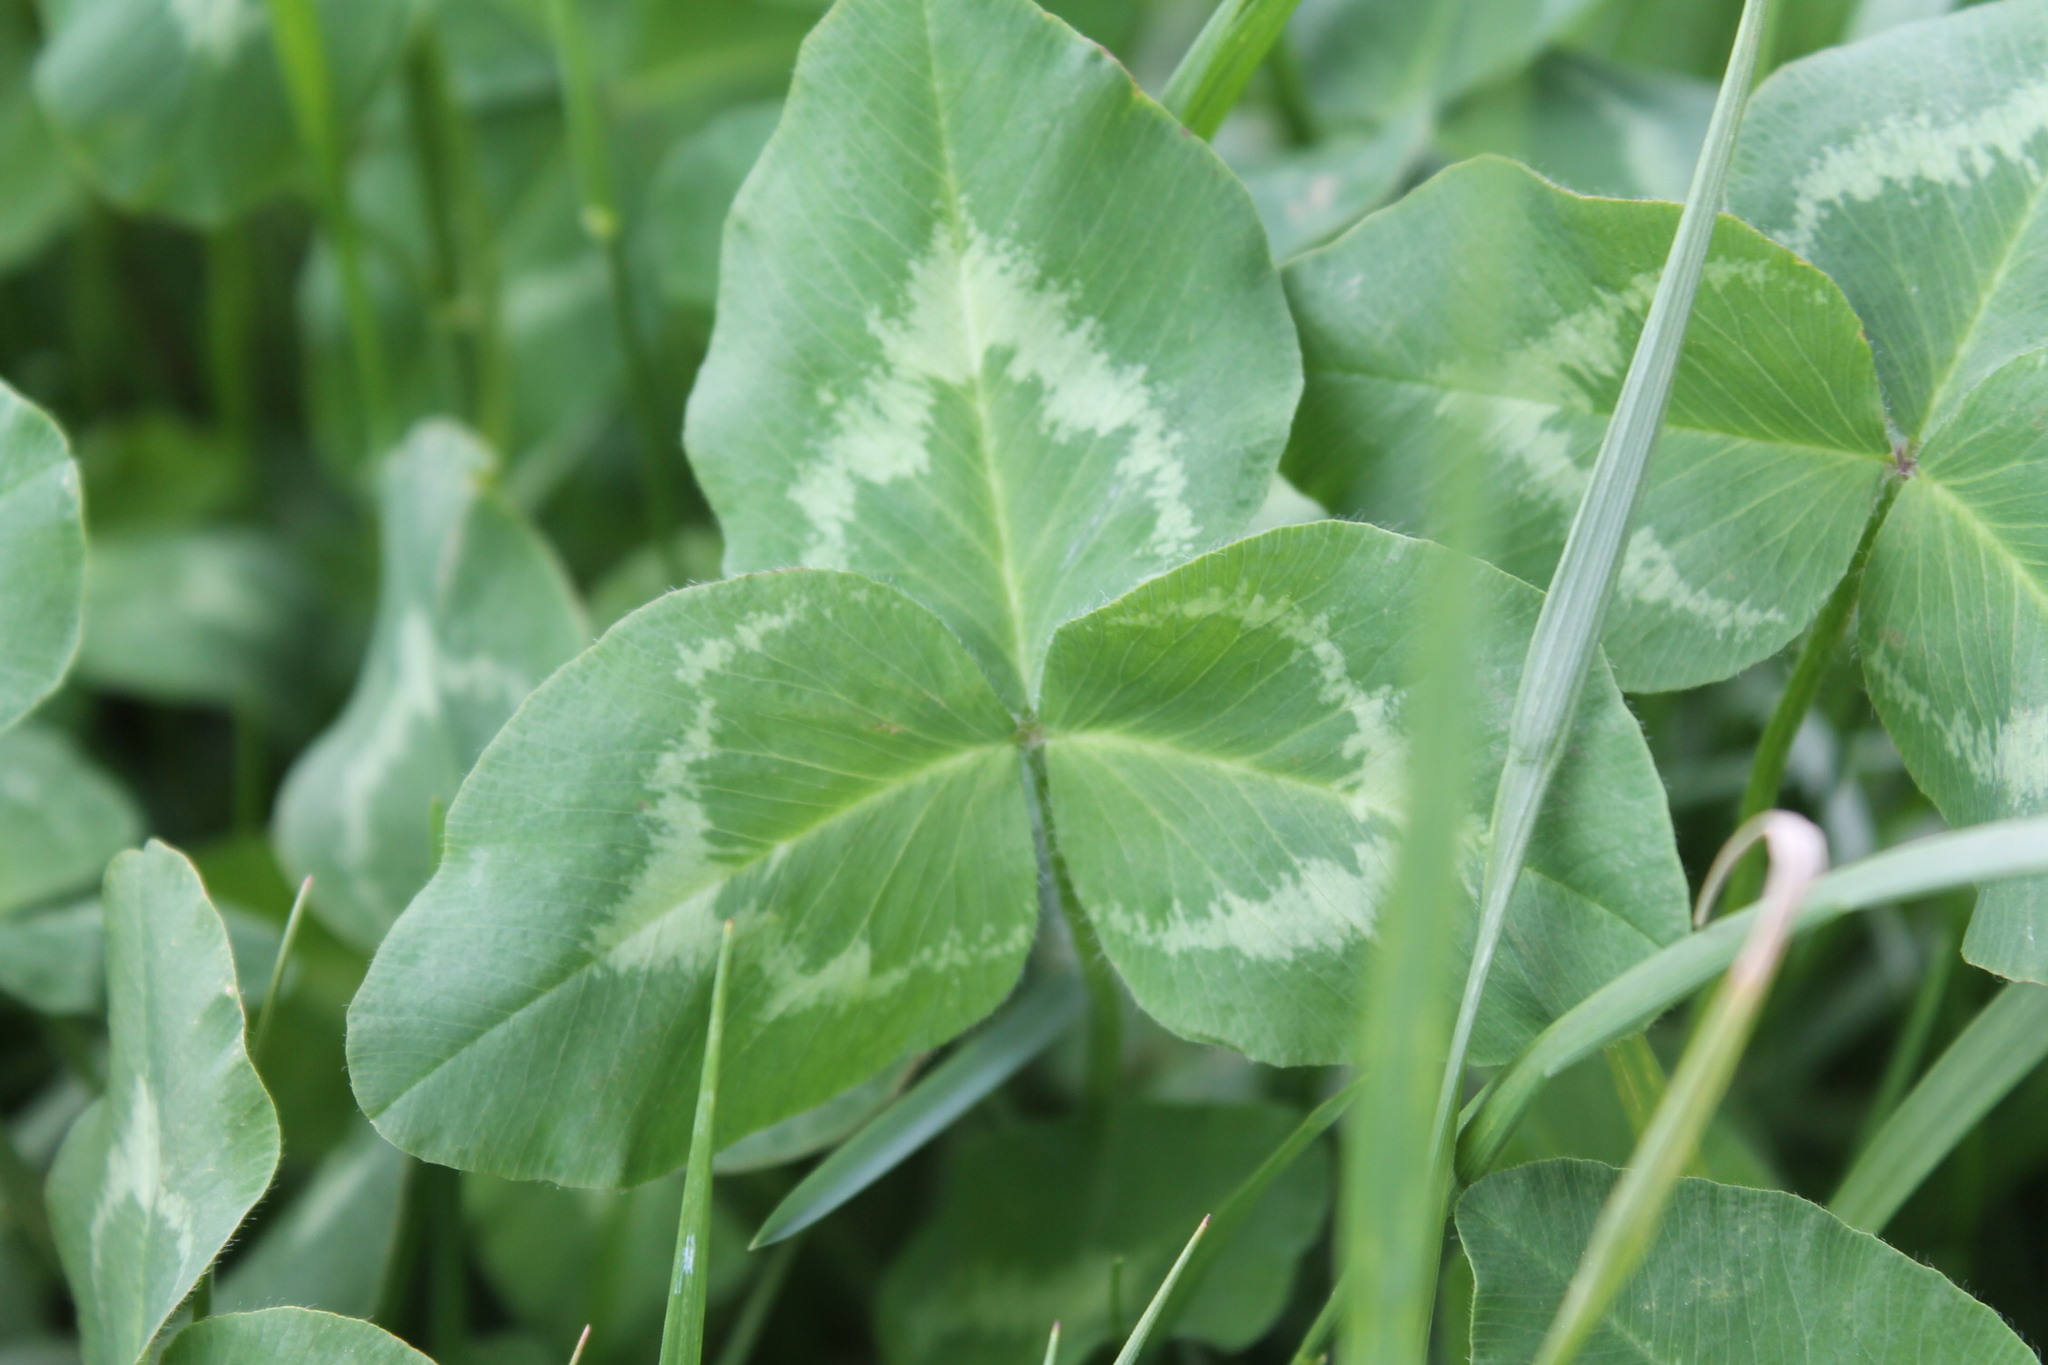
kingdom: Plantae
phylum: Tracheophyta
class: Magnoliopsida
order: Fabales
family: Fabaceae
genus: Trifolium
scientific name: Trifolium pratense
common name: Red clover
